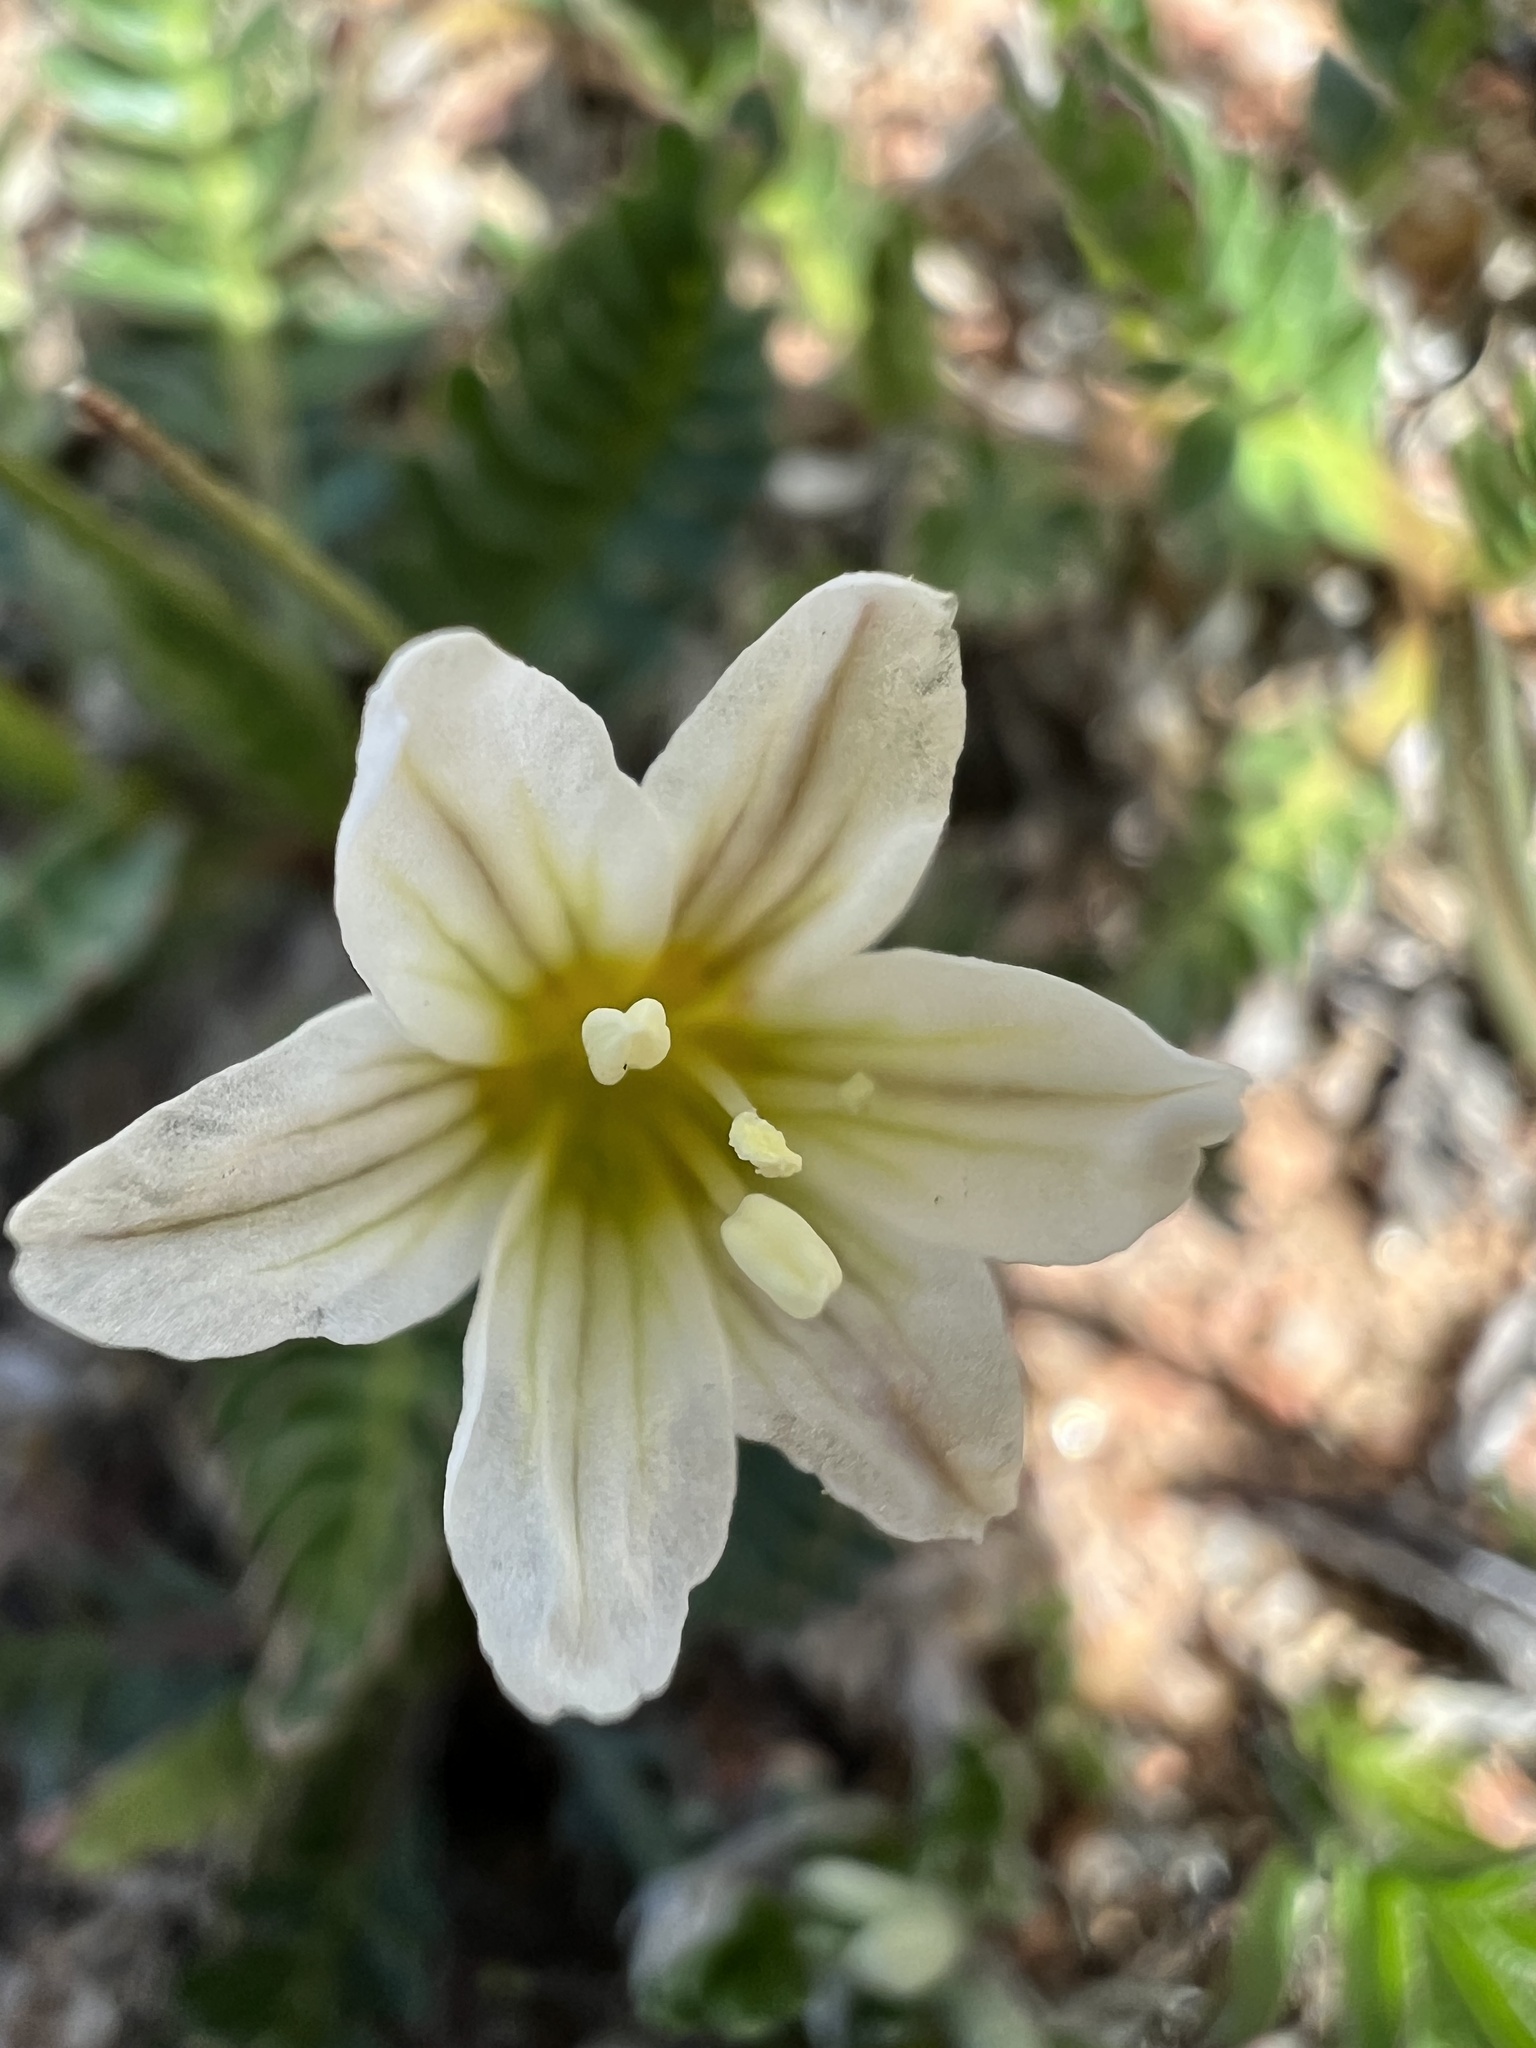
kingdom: Plantae
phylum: Tracheophyta
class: Liliopsida
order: Liliales
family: Liliaceae
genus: Gagea
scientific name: Gagea serotina
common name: Snowdon lily
